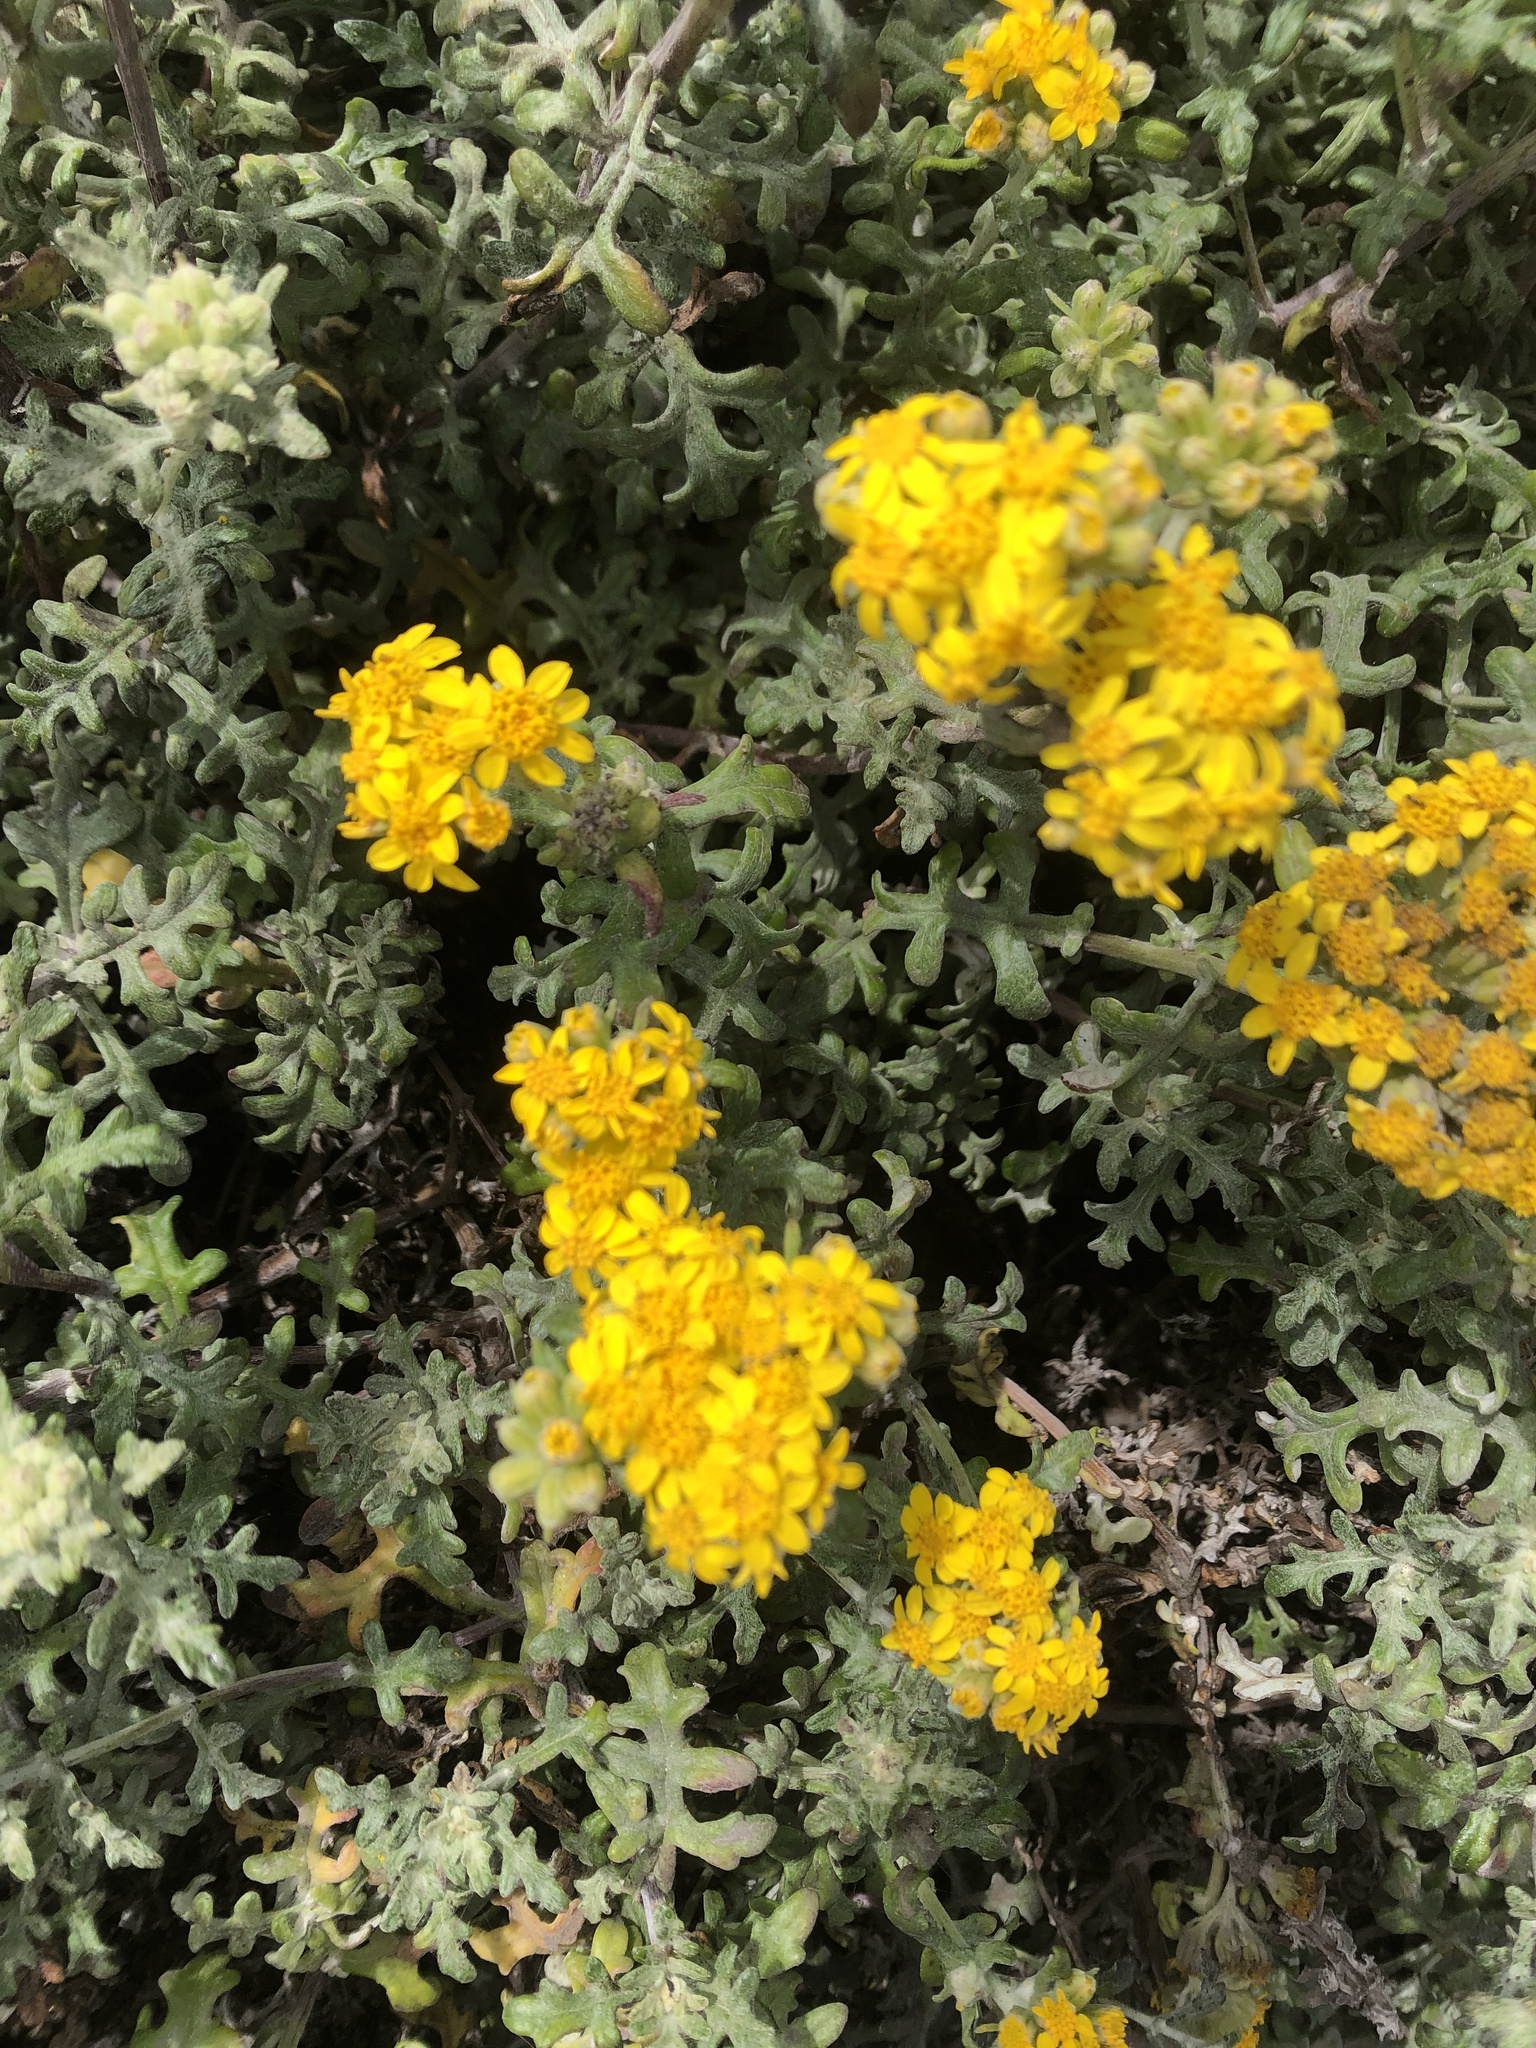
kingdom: Plantae
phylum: Tracheophyta
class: Magnoliopsida
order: Asterales
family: Asteraceae
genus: Eriophyllum
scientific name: Eriophyllum staechadifolium
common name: Lizardtail
